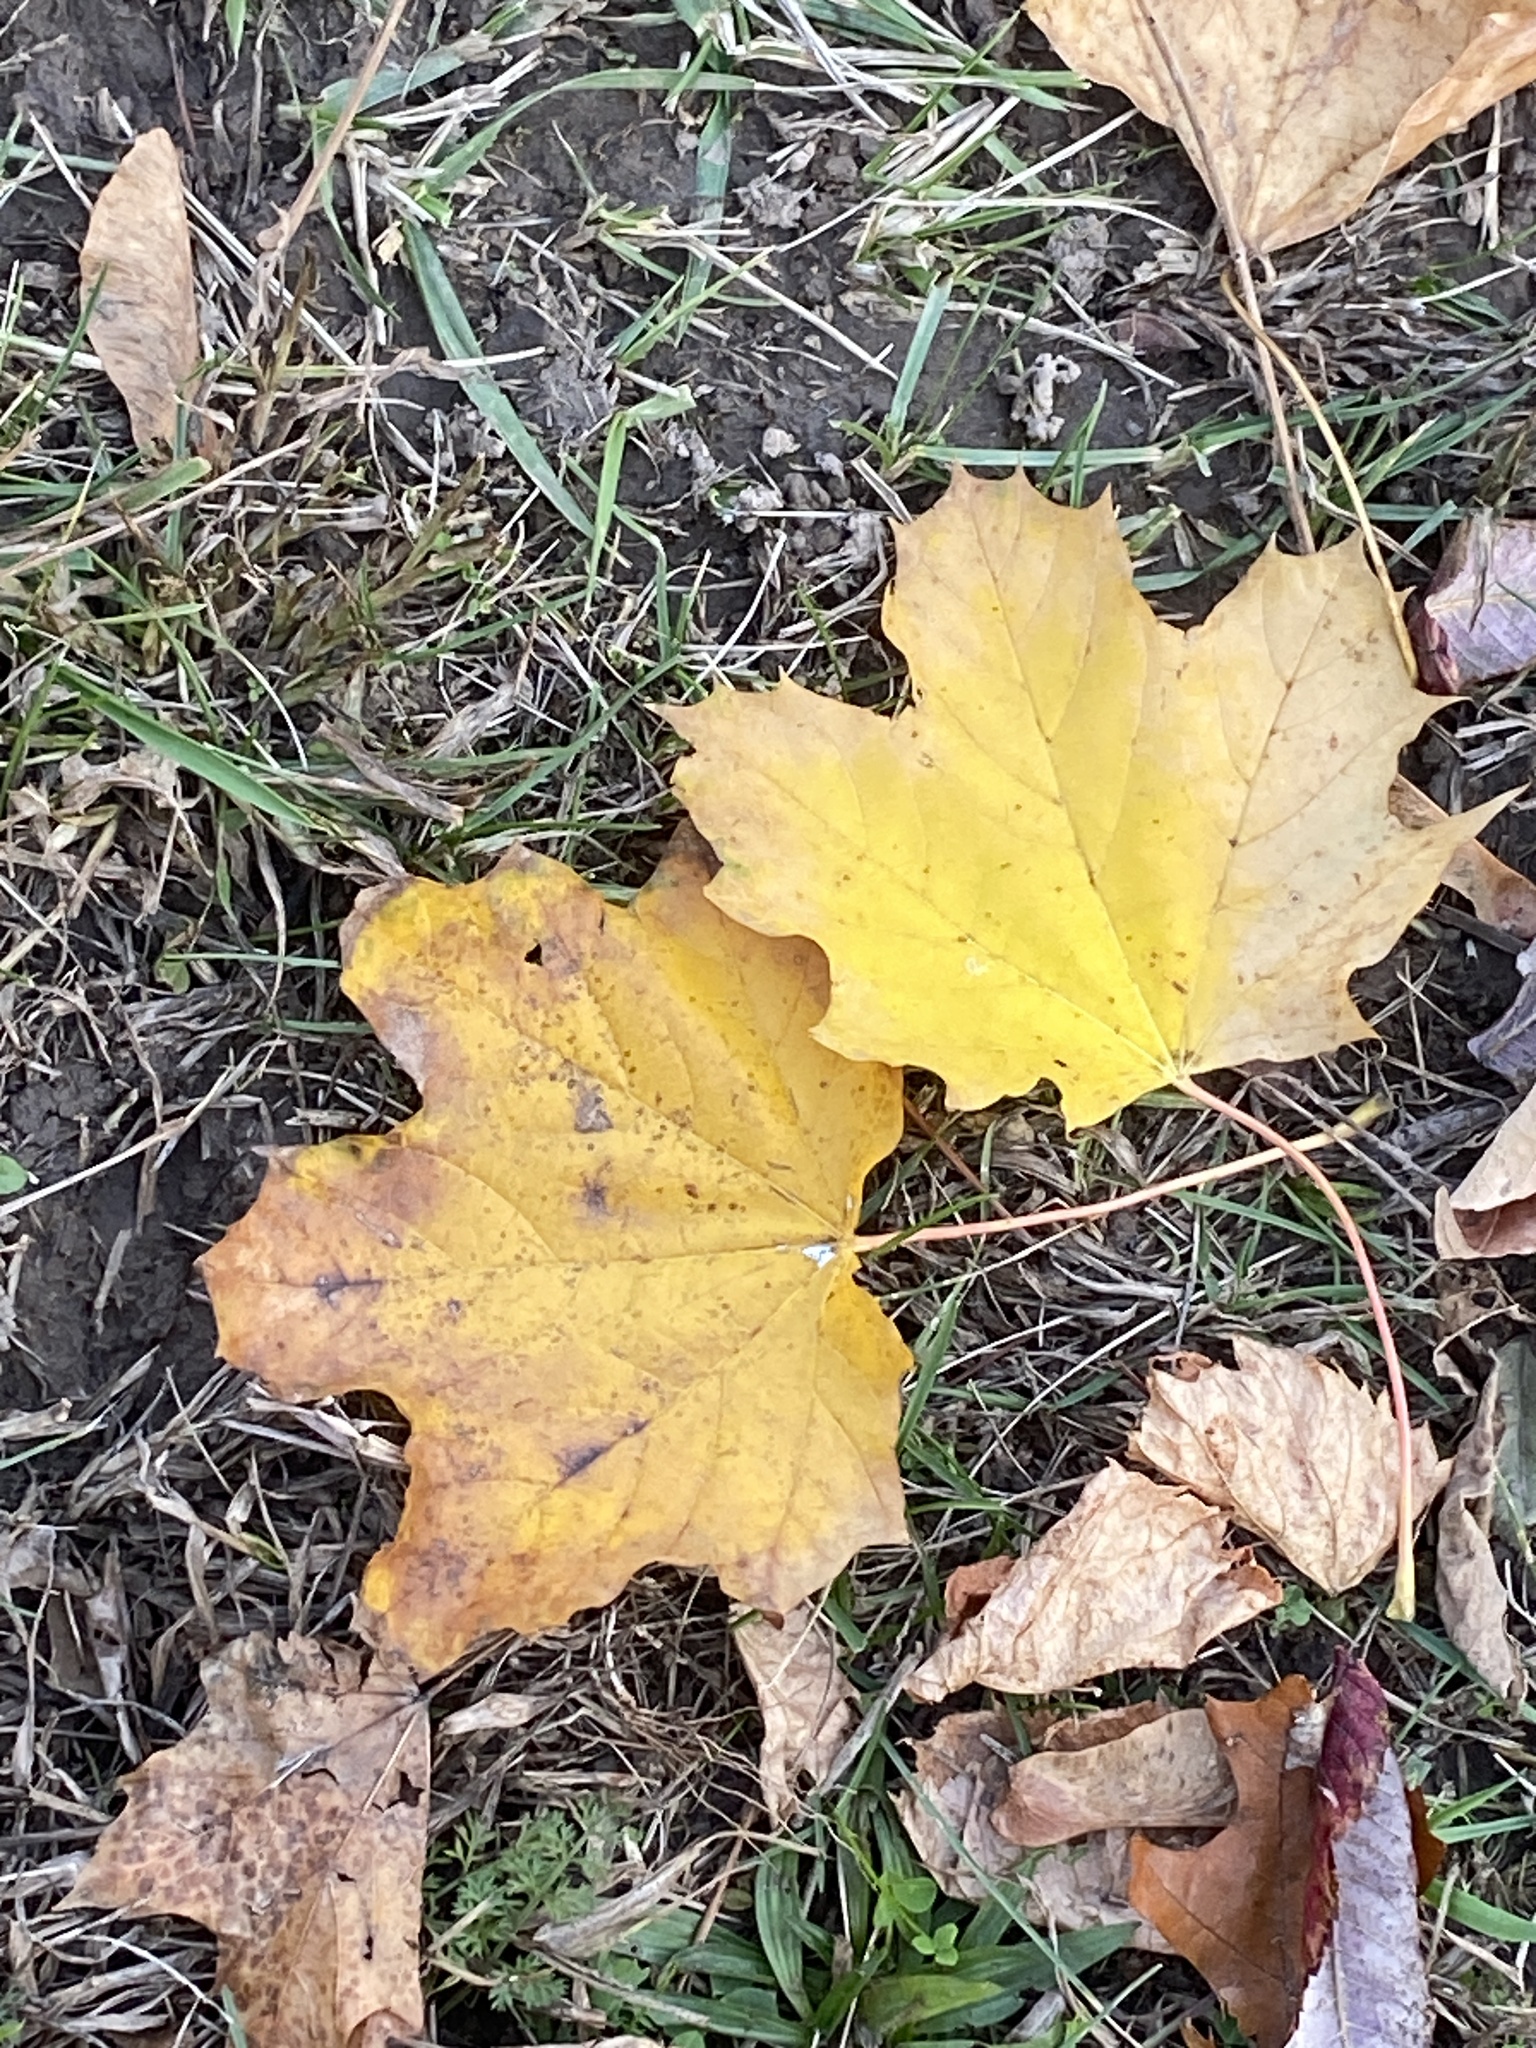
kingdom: Plantae
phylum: Tracheophyta
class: Magnoliopsida
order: Sapindales
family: Sapindaceae
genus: Acer
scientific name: Acer platanoides
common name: Norway maple
